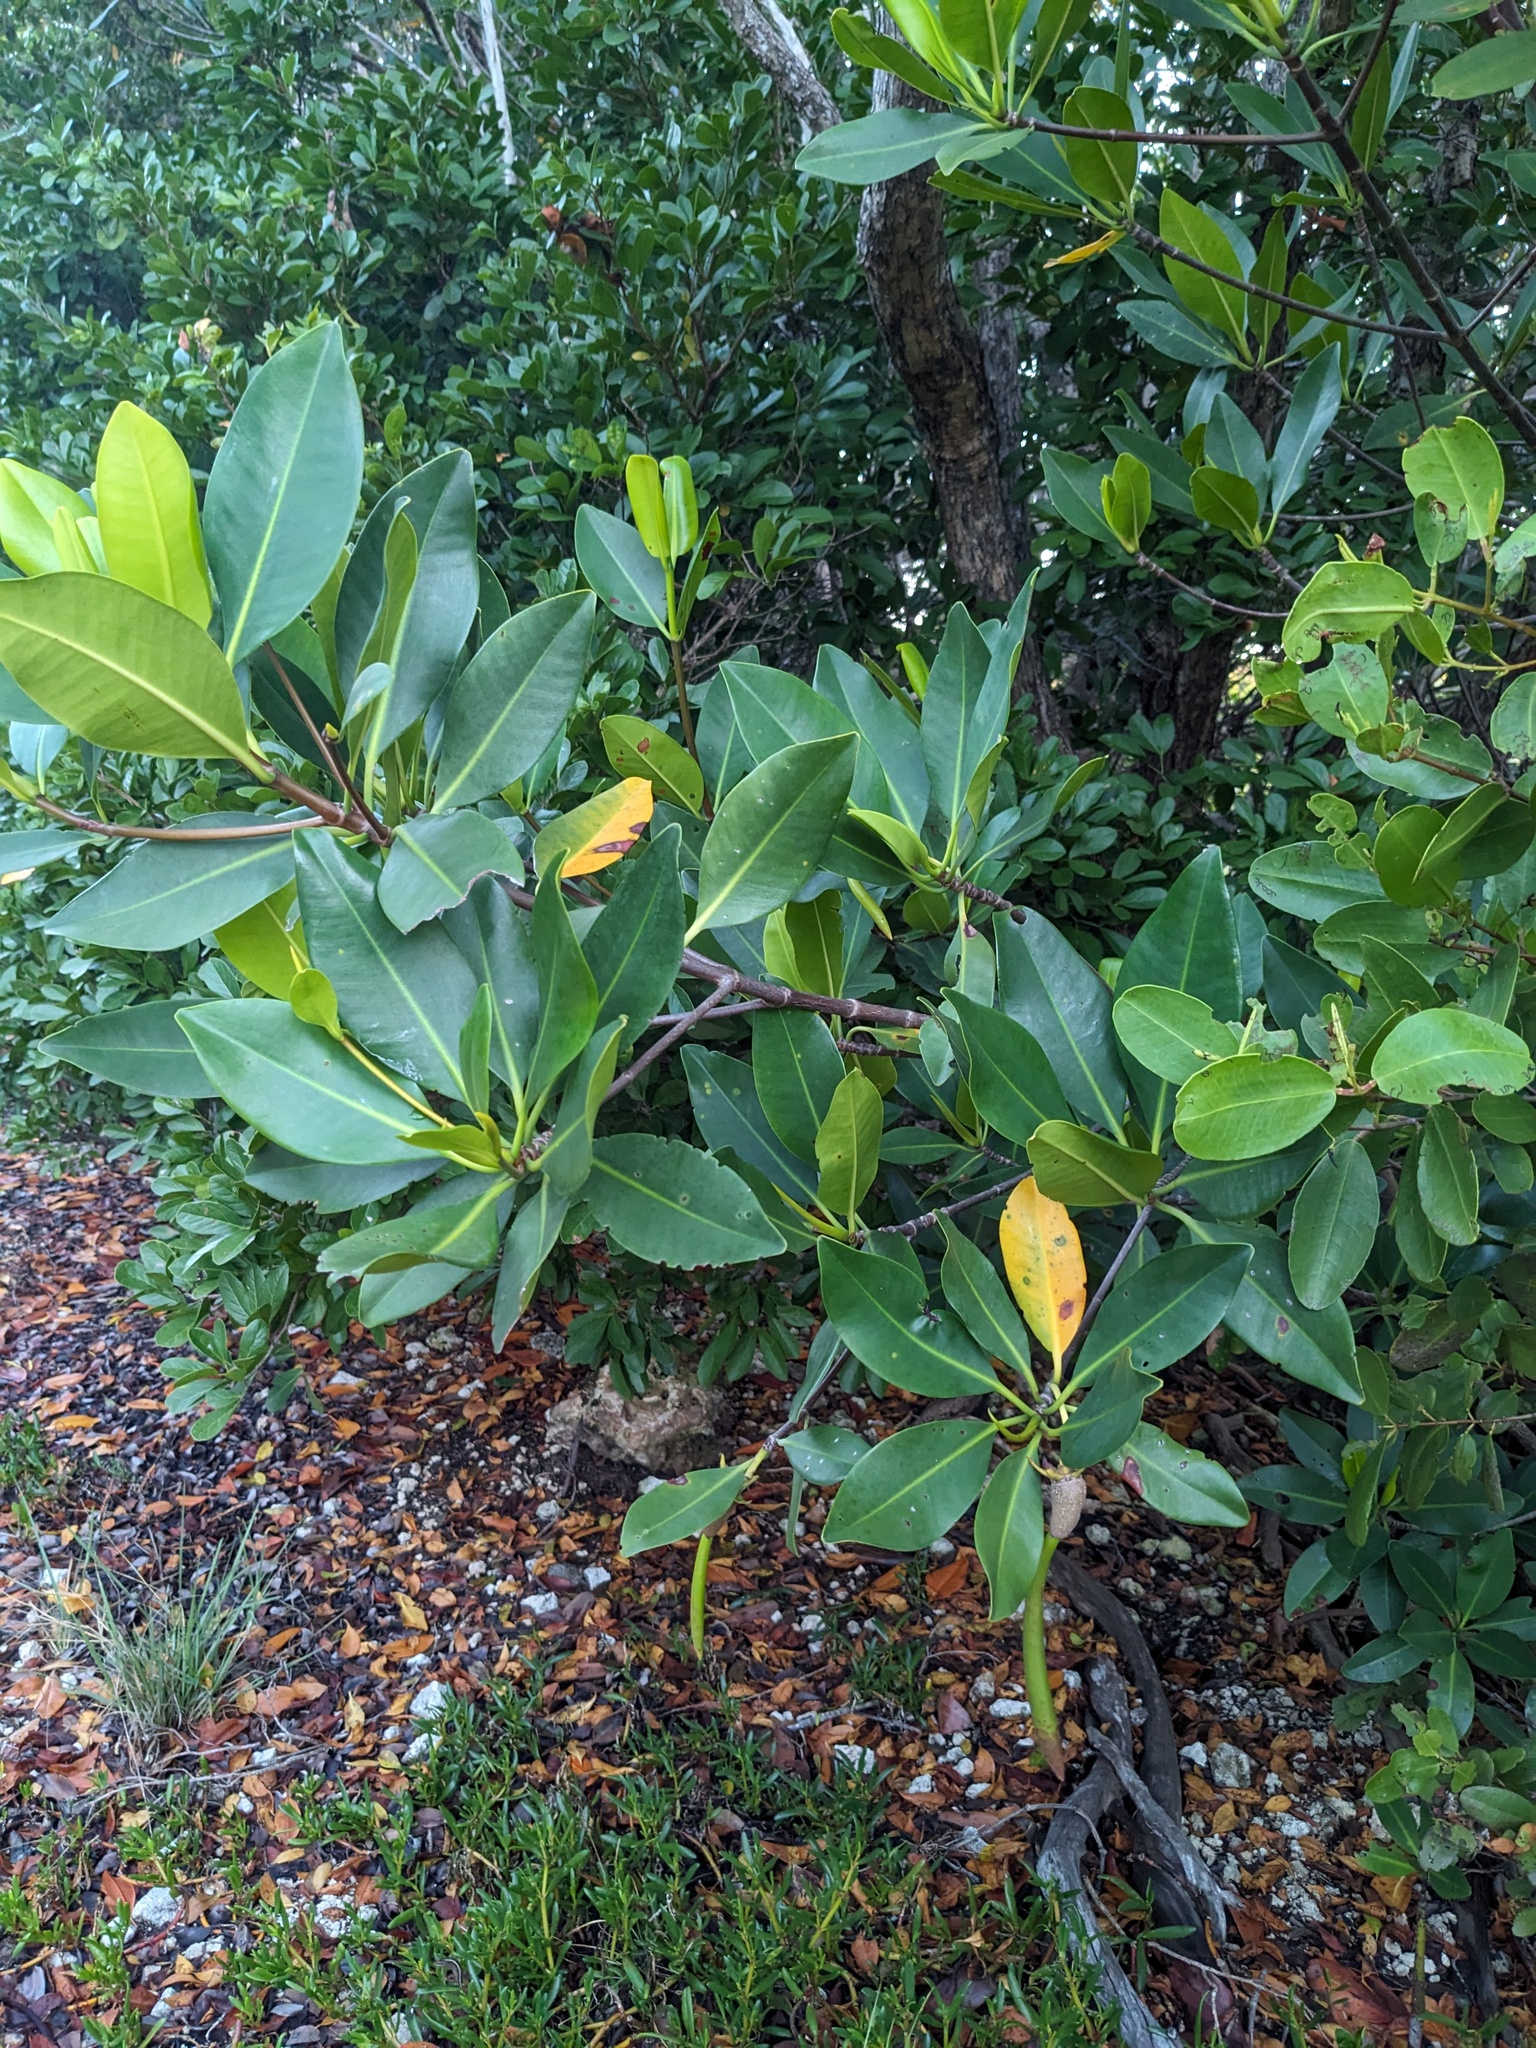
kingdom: Plantae
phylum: Tracheophyta
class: Magnoliopsida
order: Malpighiales
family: Rhizophoraceae
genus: Rhizophora
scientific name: Rhizophora mangle
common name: Red mangrove
